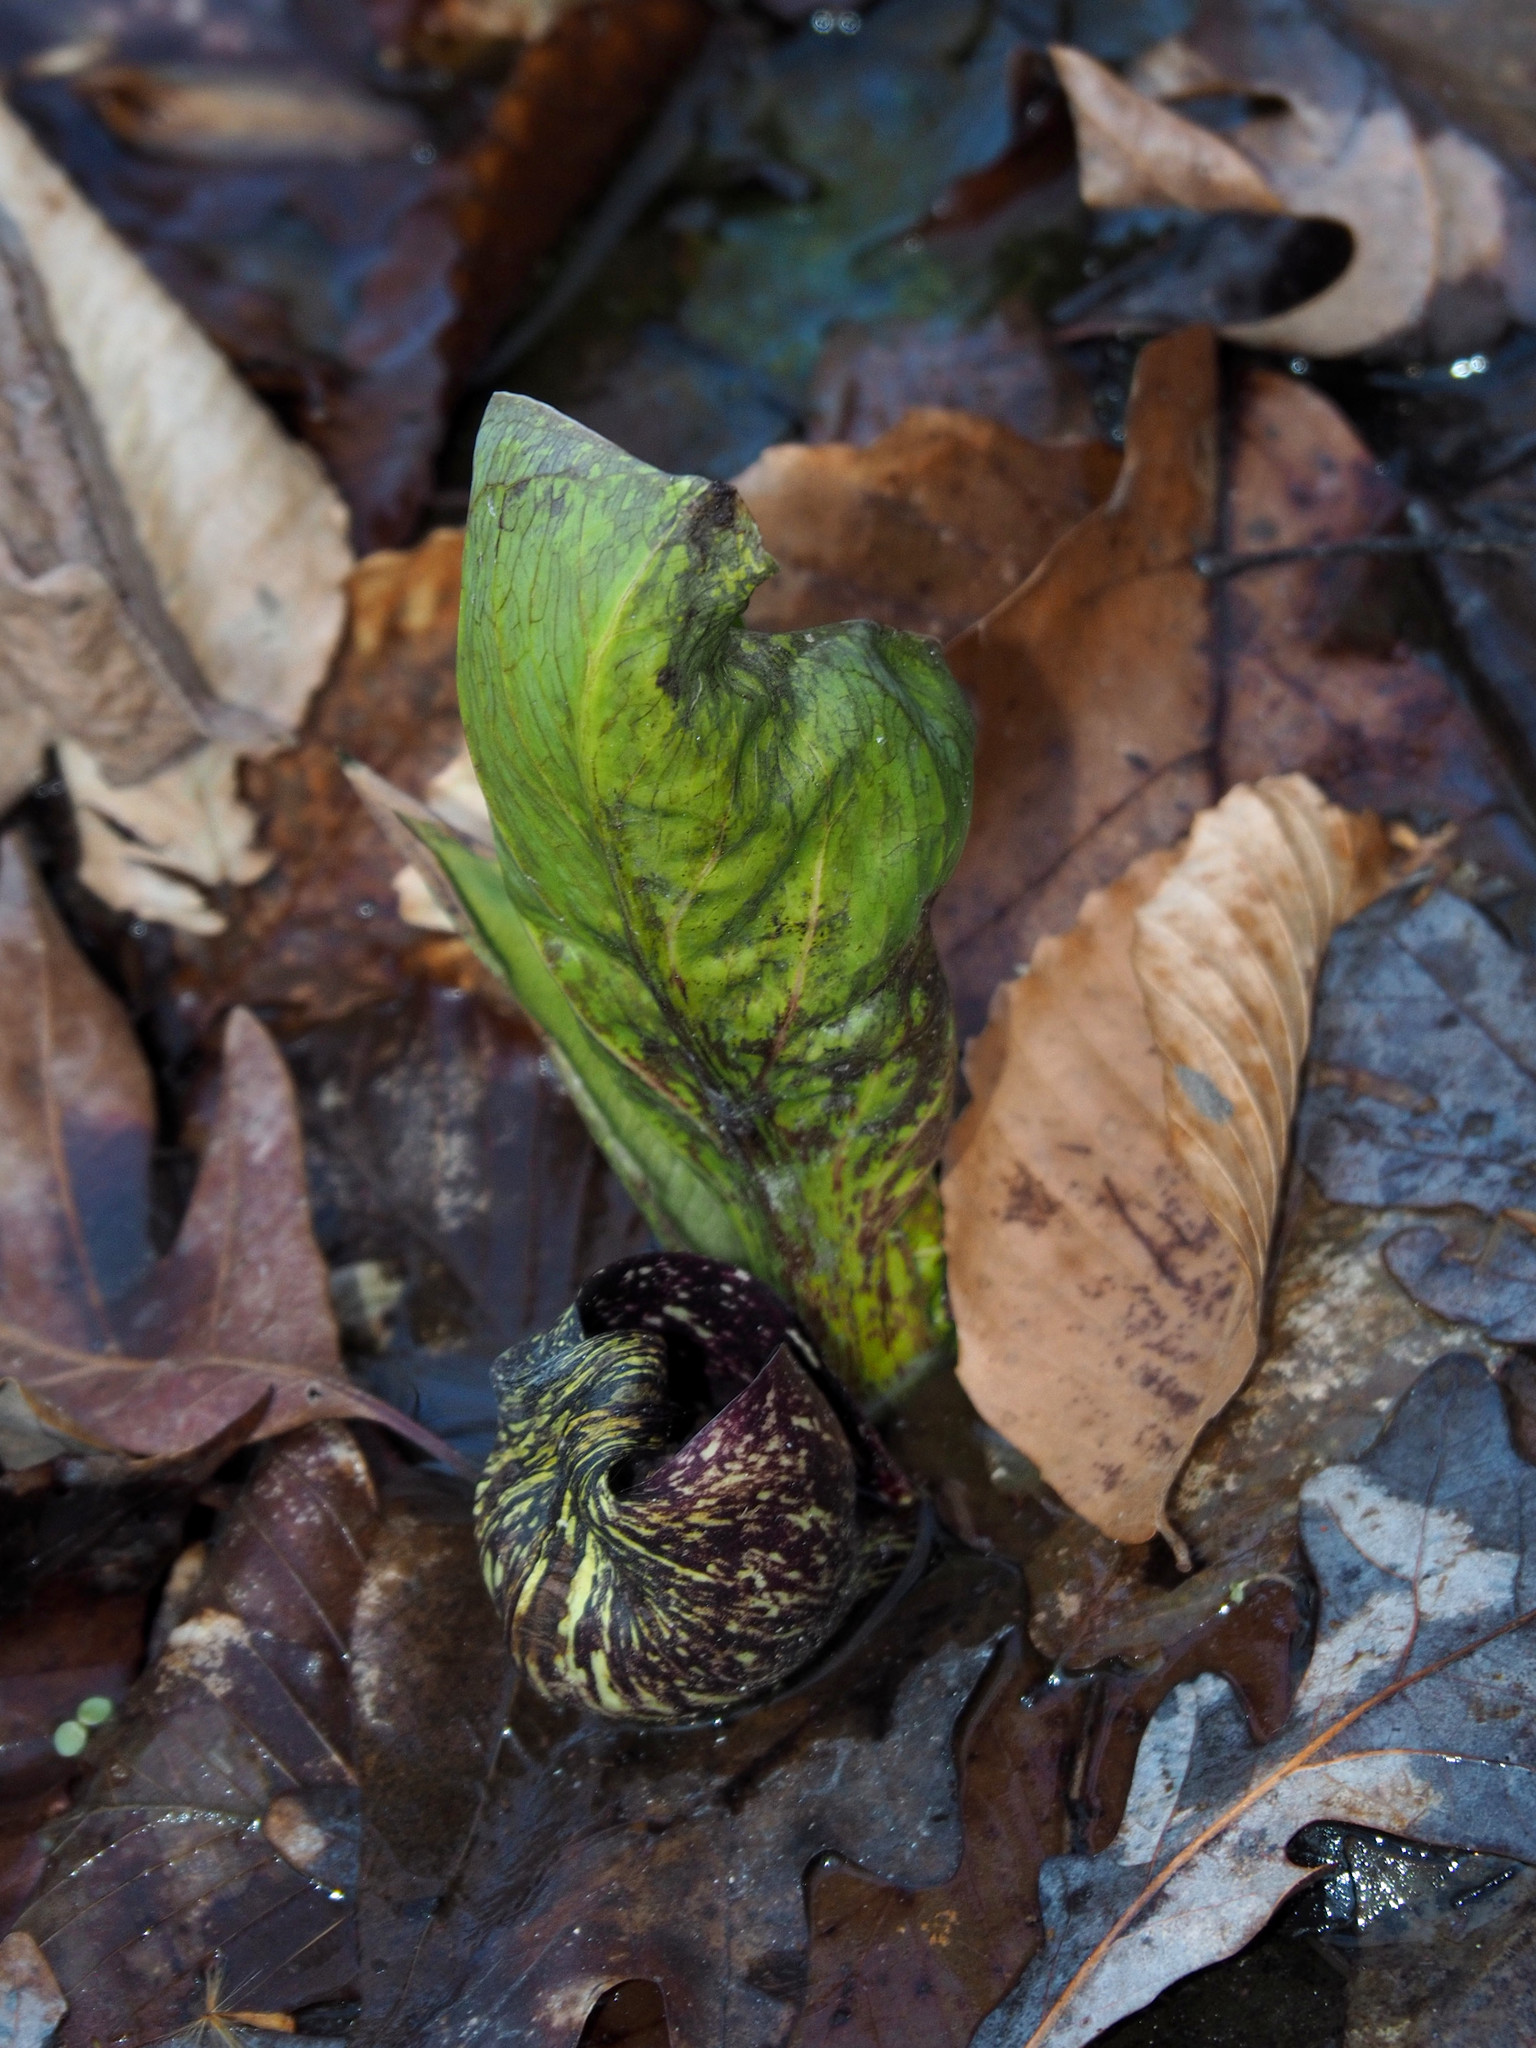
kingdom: Plantae
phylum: Tracheophyta
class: Liliopsida
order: Alismatales
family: Araceae
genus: Symplocarpus
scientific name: Symplocarpus foetidus
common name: Eastern skunk cabbage
